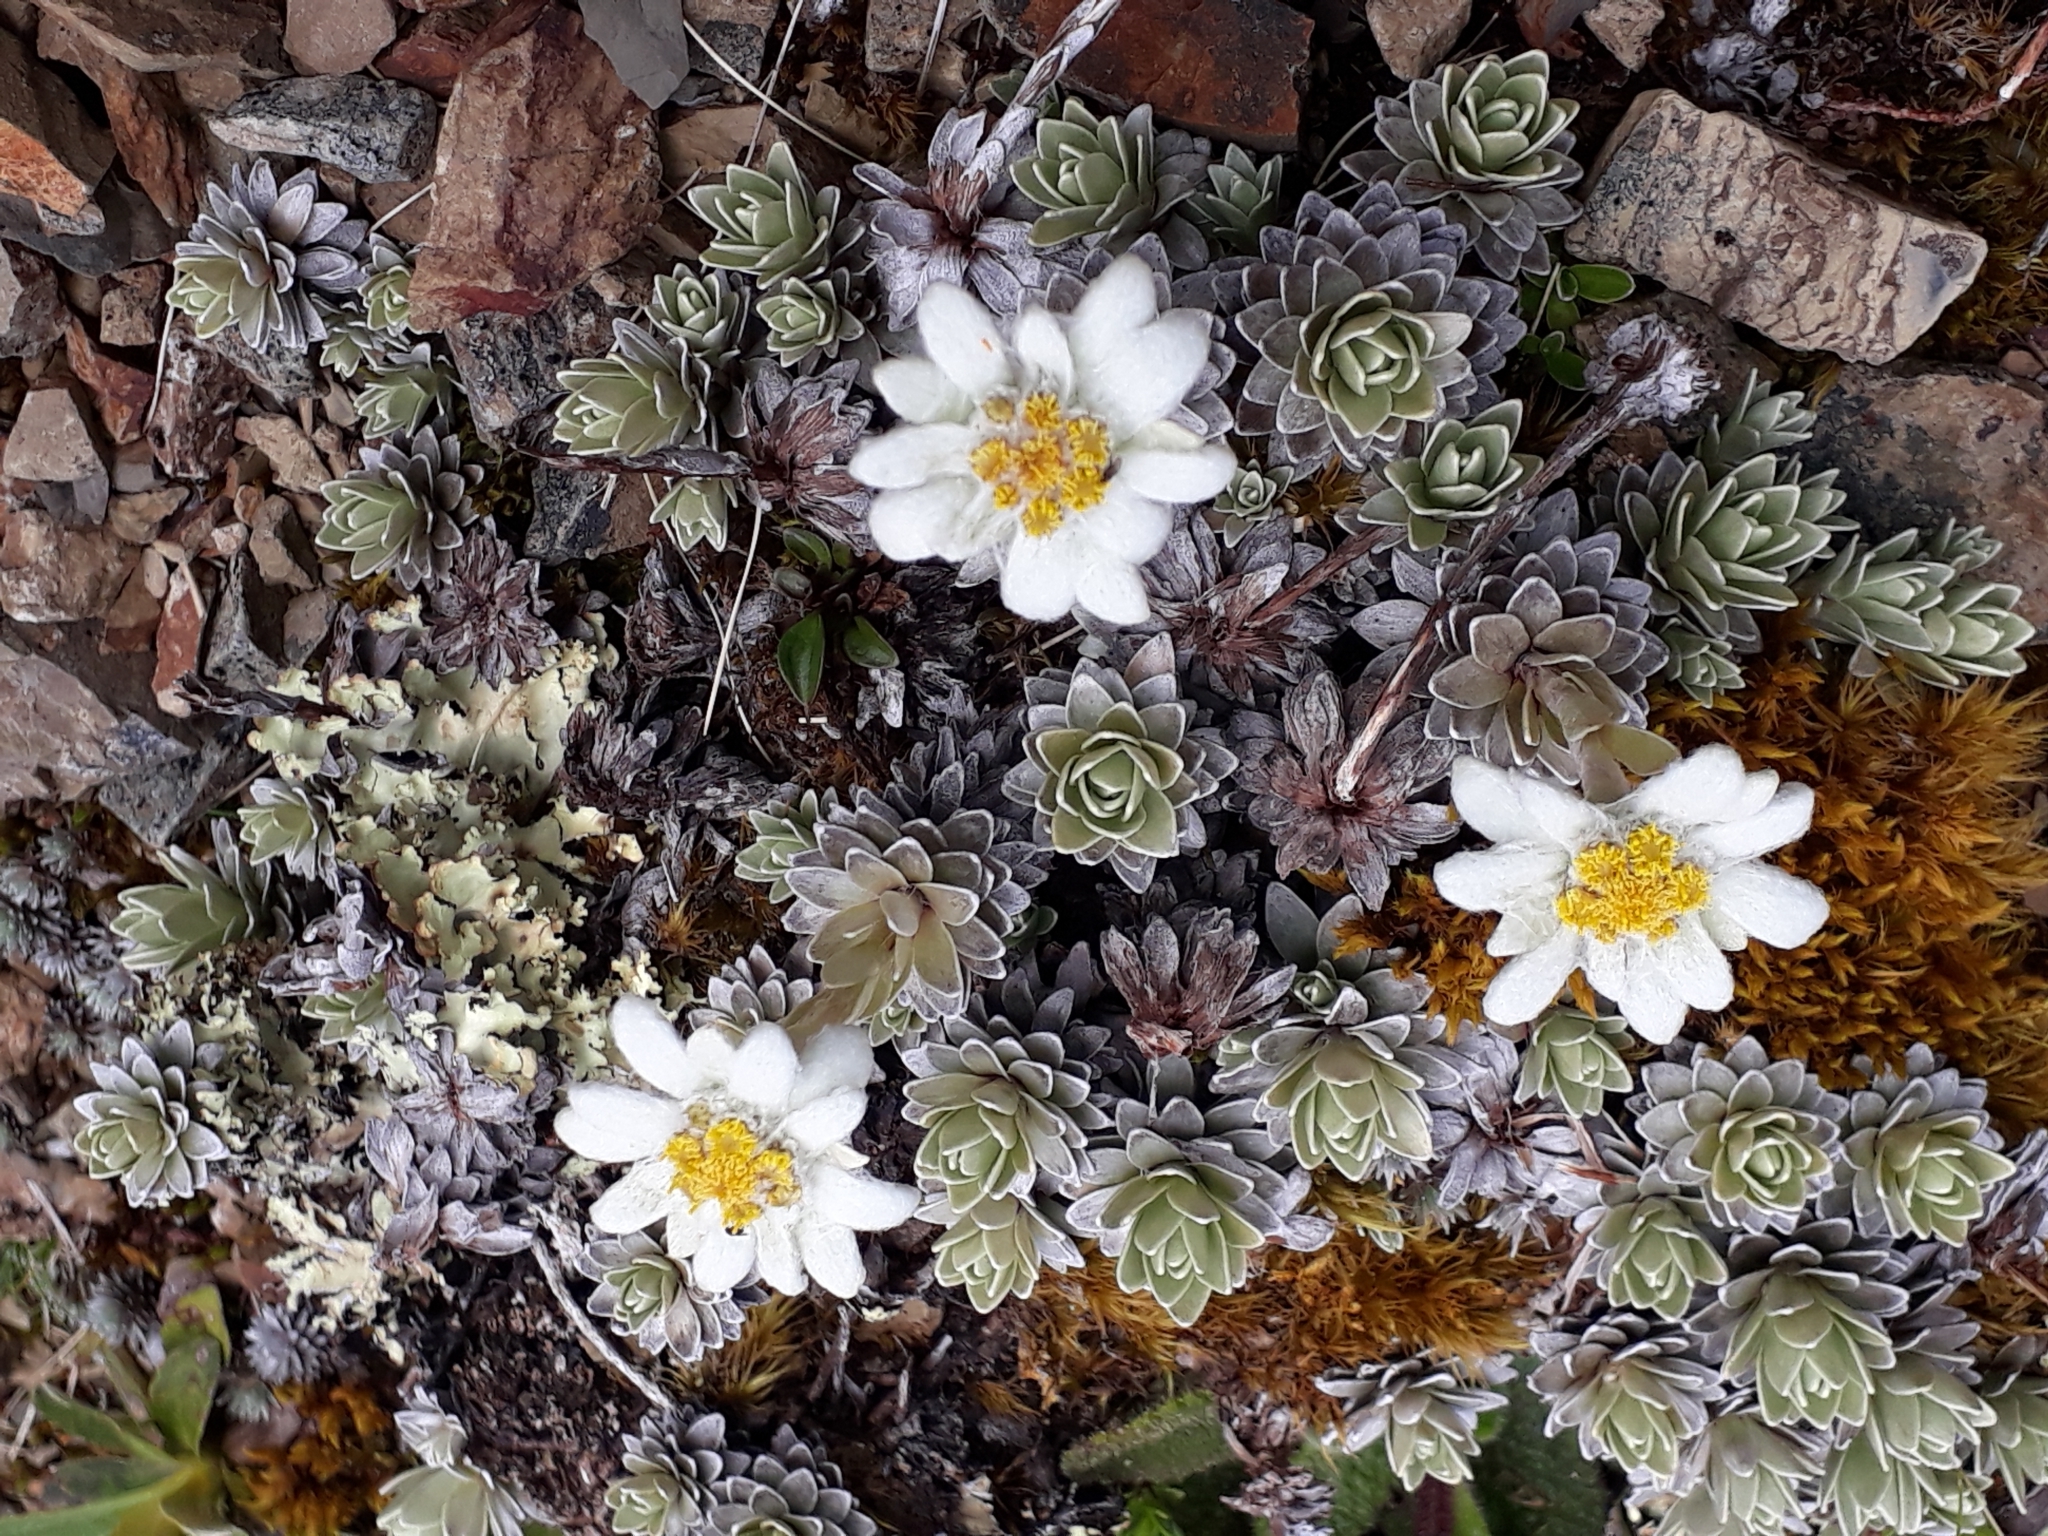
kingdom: Plantae
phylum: Tracheophyta
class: Magnoliopsida
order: Asterales
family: Asteraceae
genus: Leucogenes
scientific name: Leucogenes leontopodium
